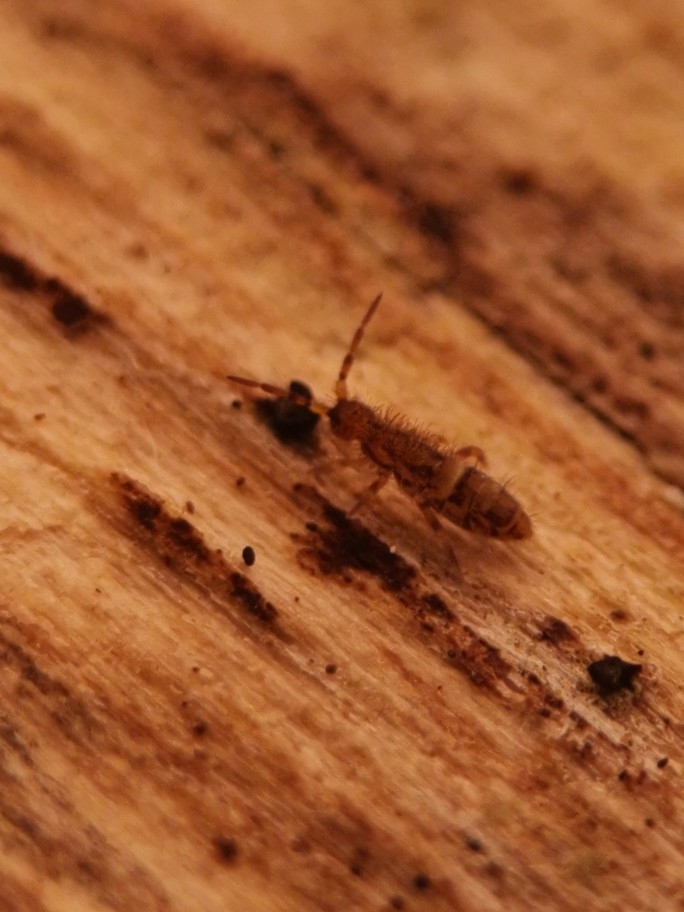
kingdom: Animalia
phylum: Arthropoda
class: Collembola
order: Entomobryomorpha
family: Orchesellidae
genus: Orchesella
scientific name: Orchesella cincta
